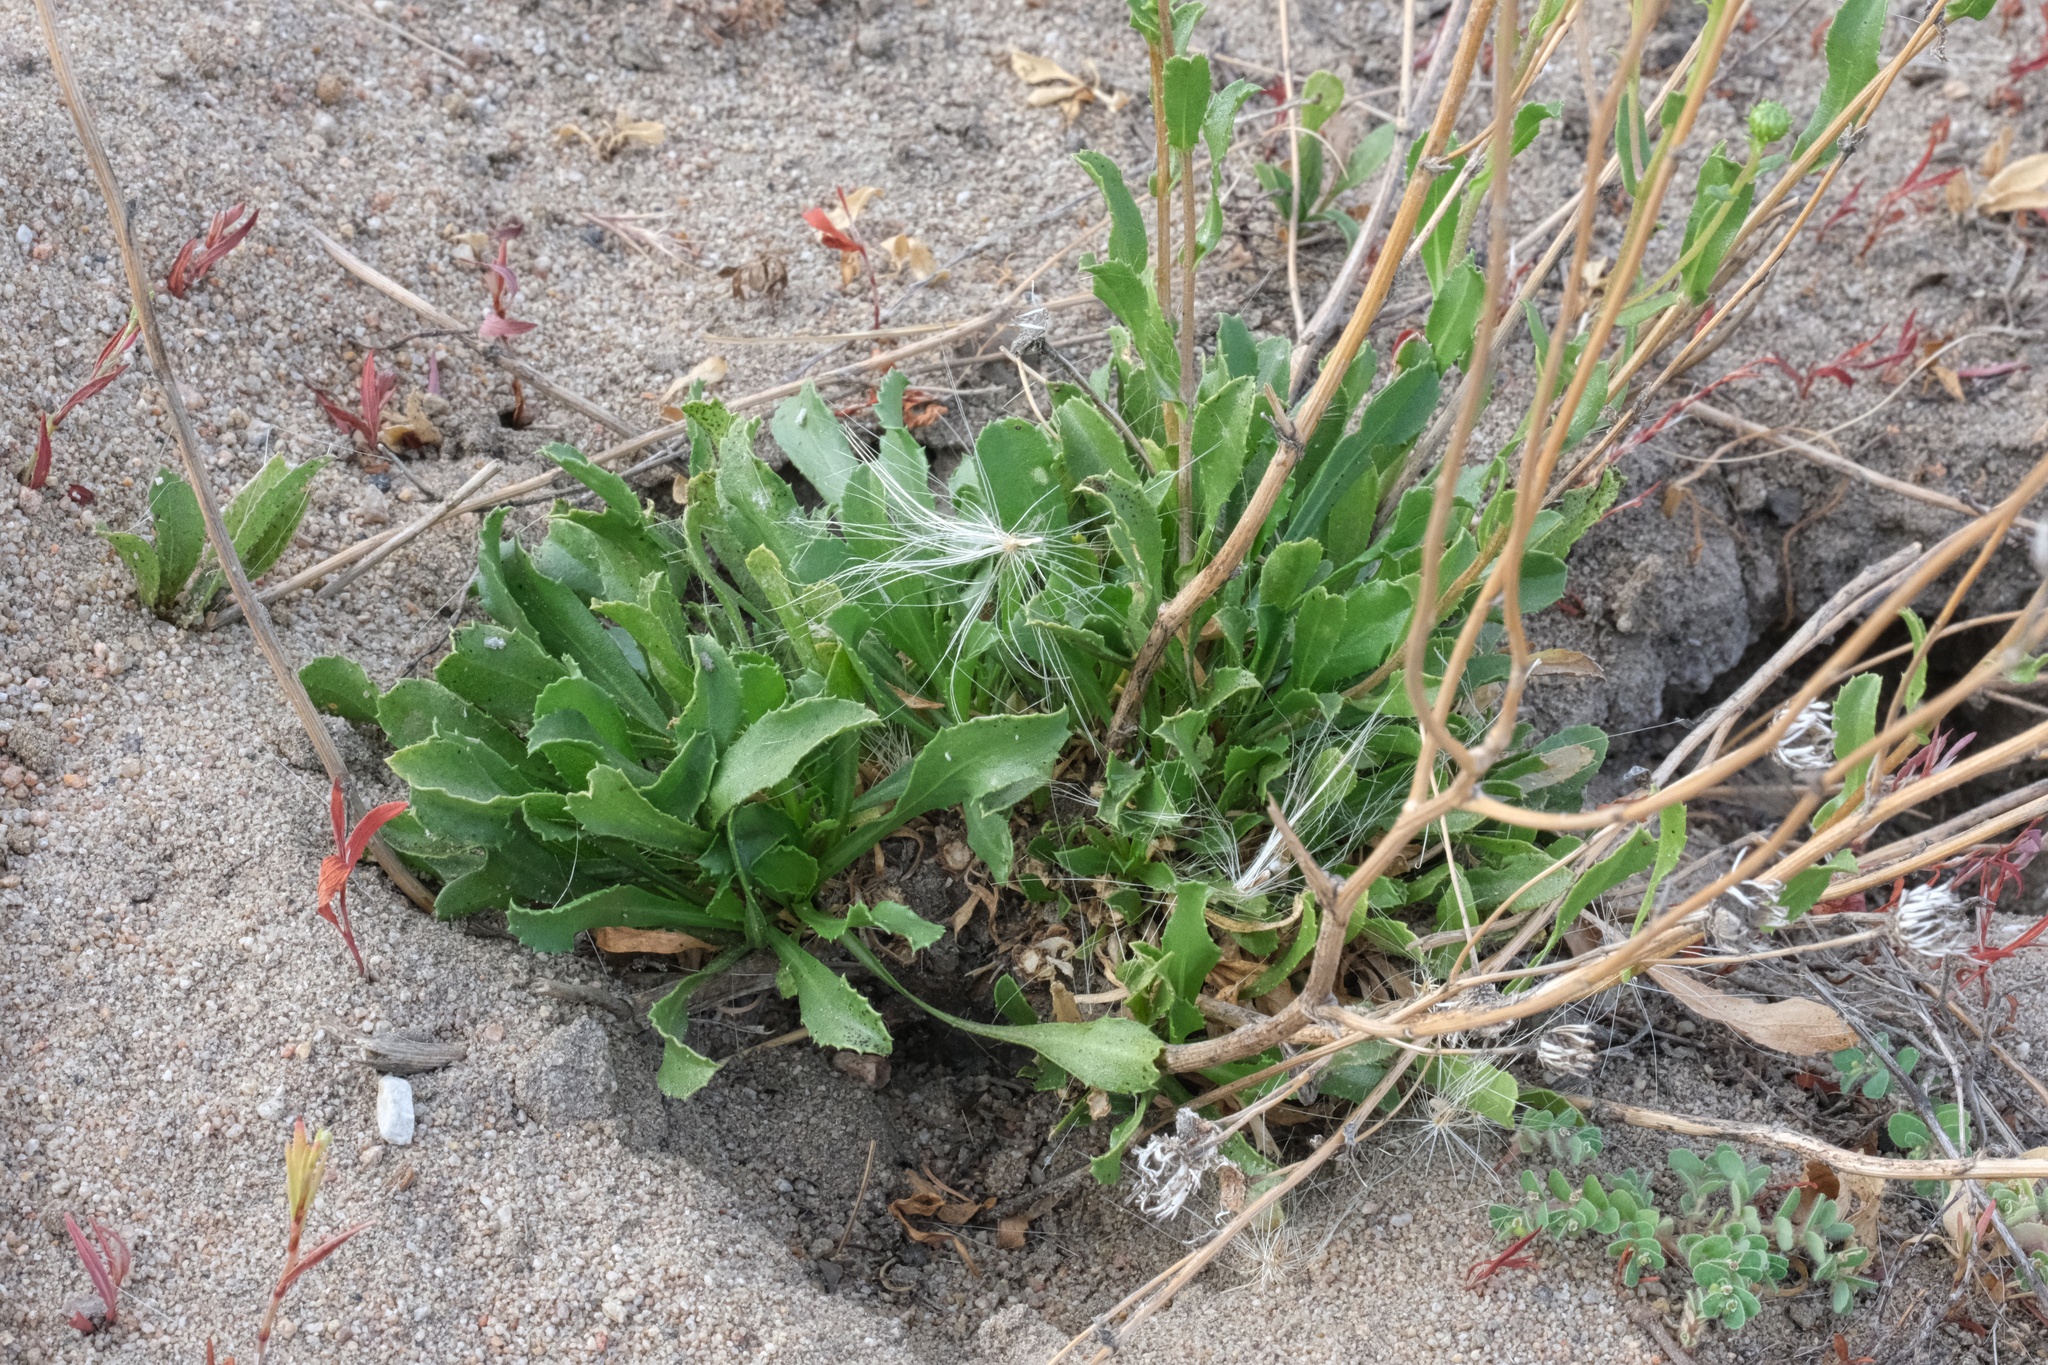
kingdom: Plantae
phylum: Tracheophyta
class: Magnoliopsida
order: Asterales
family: Asteraceae
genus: Grindelia
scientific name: Grindelia hirsutula
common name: Hairy gumweed
